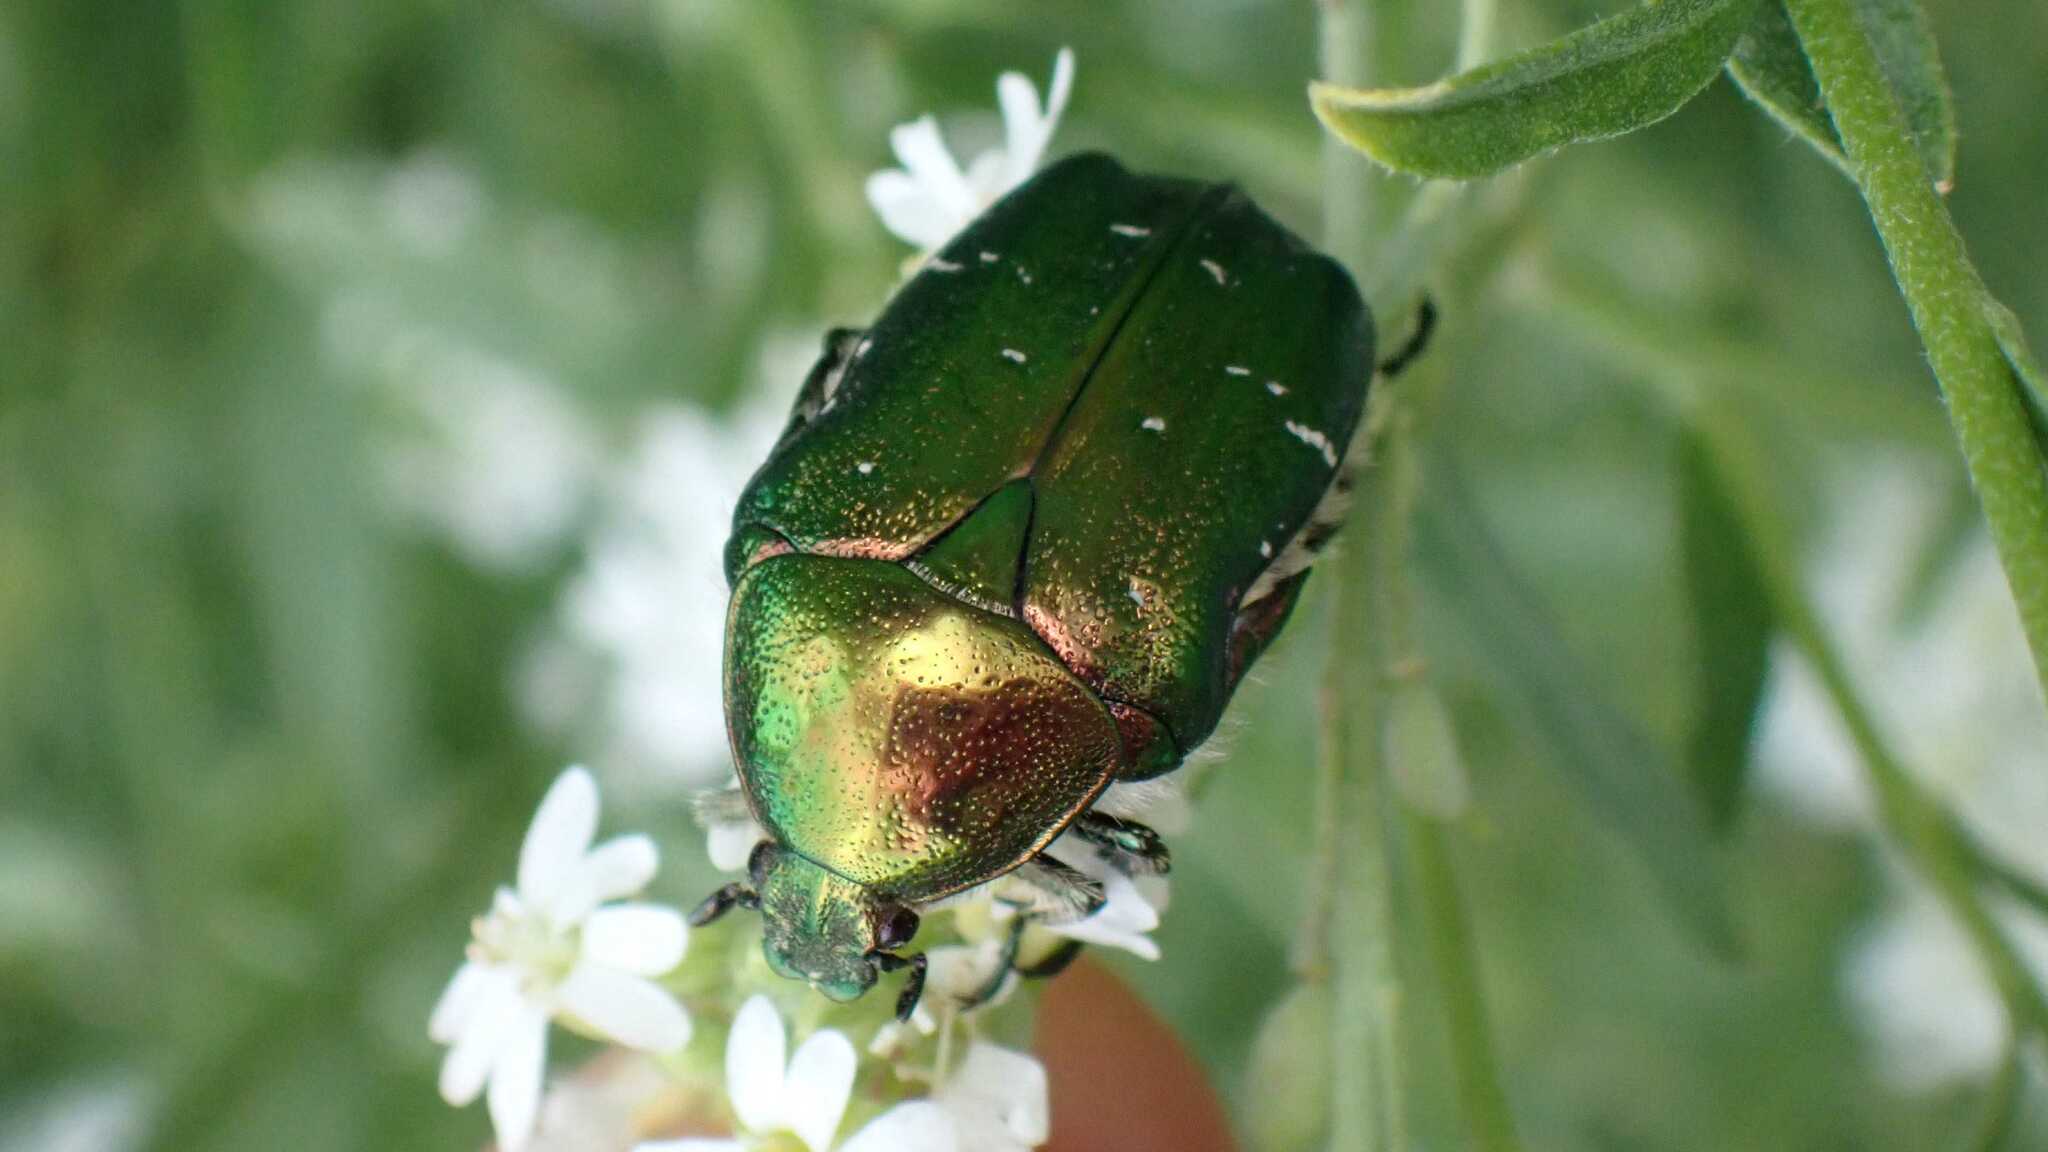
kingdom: Animalia
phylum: Arthropoda
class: Insecta
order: Coleoptera
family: Scarabaeidae
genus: Cetonia
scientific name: Cetonia aurata
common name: Rose chafer
